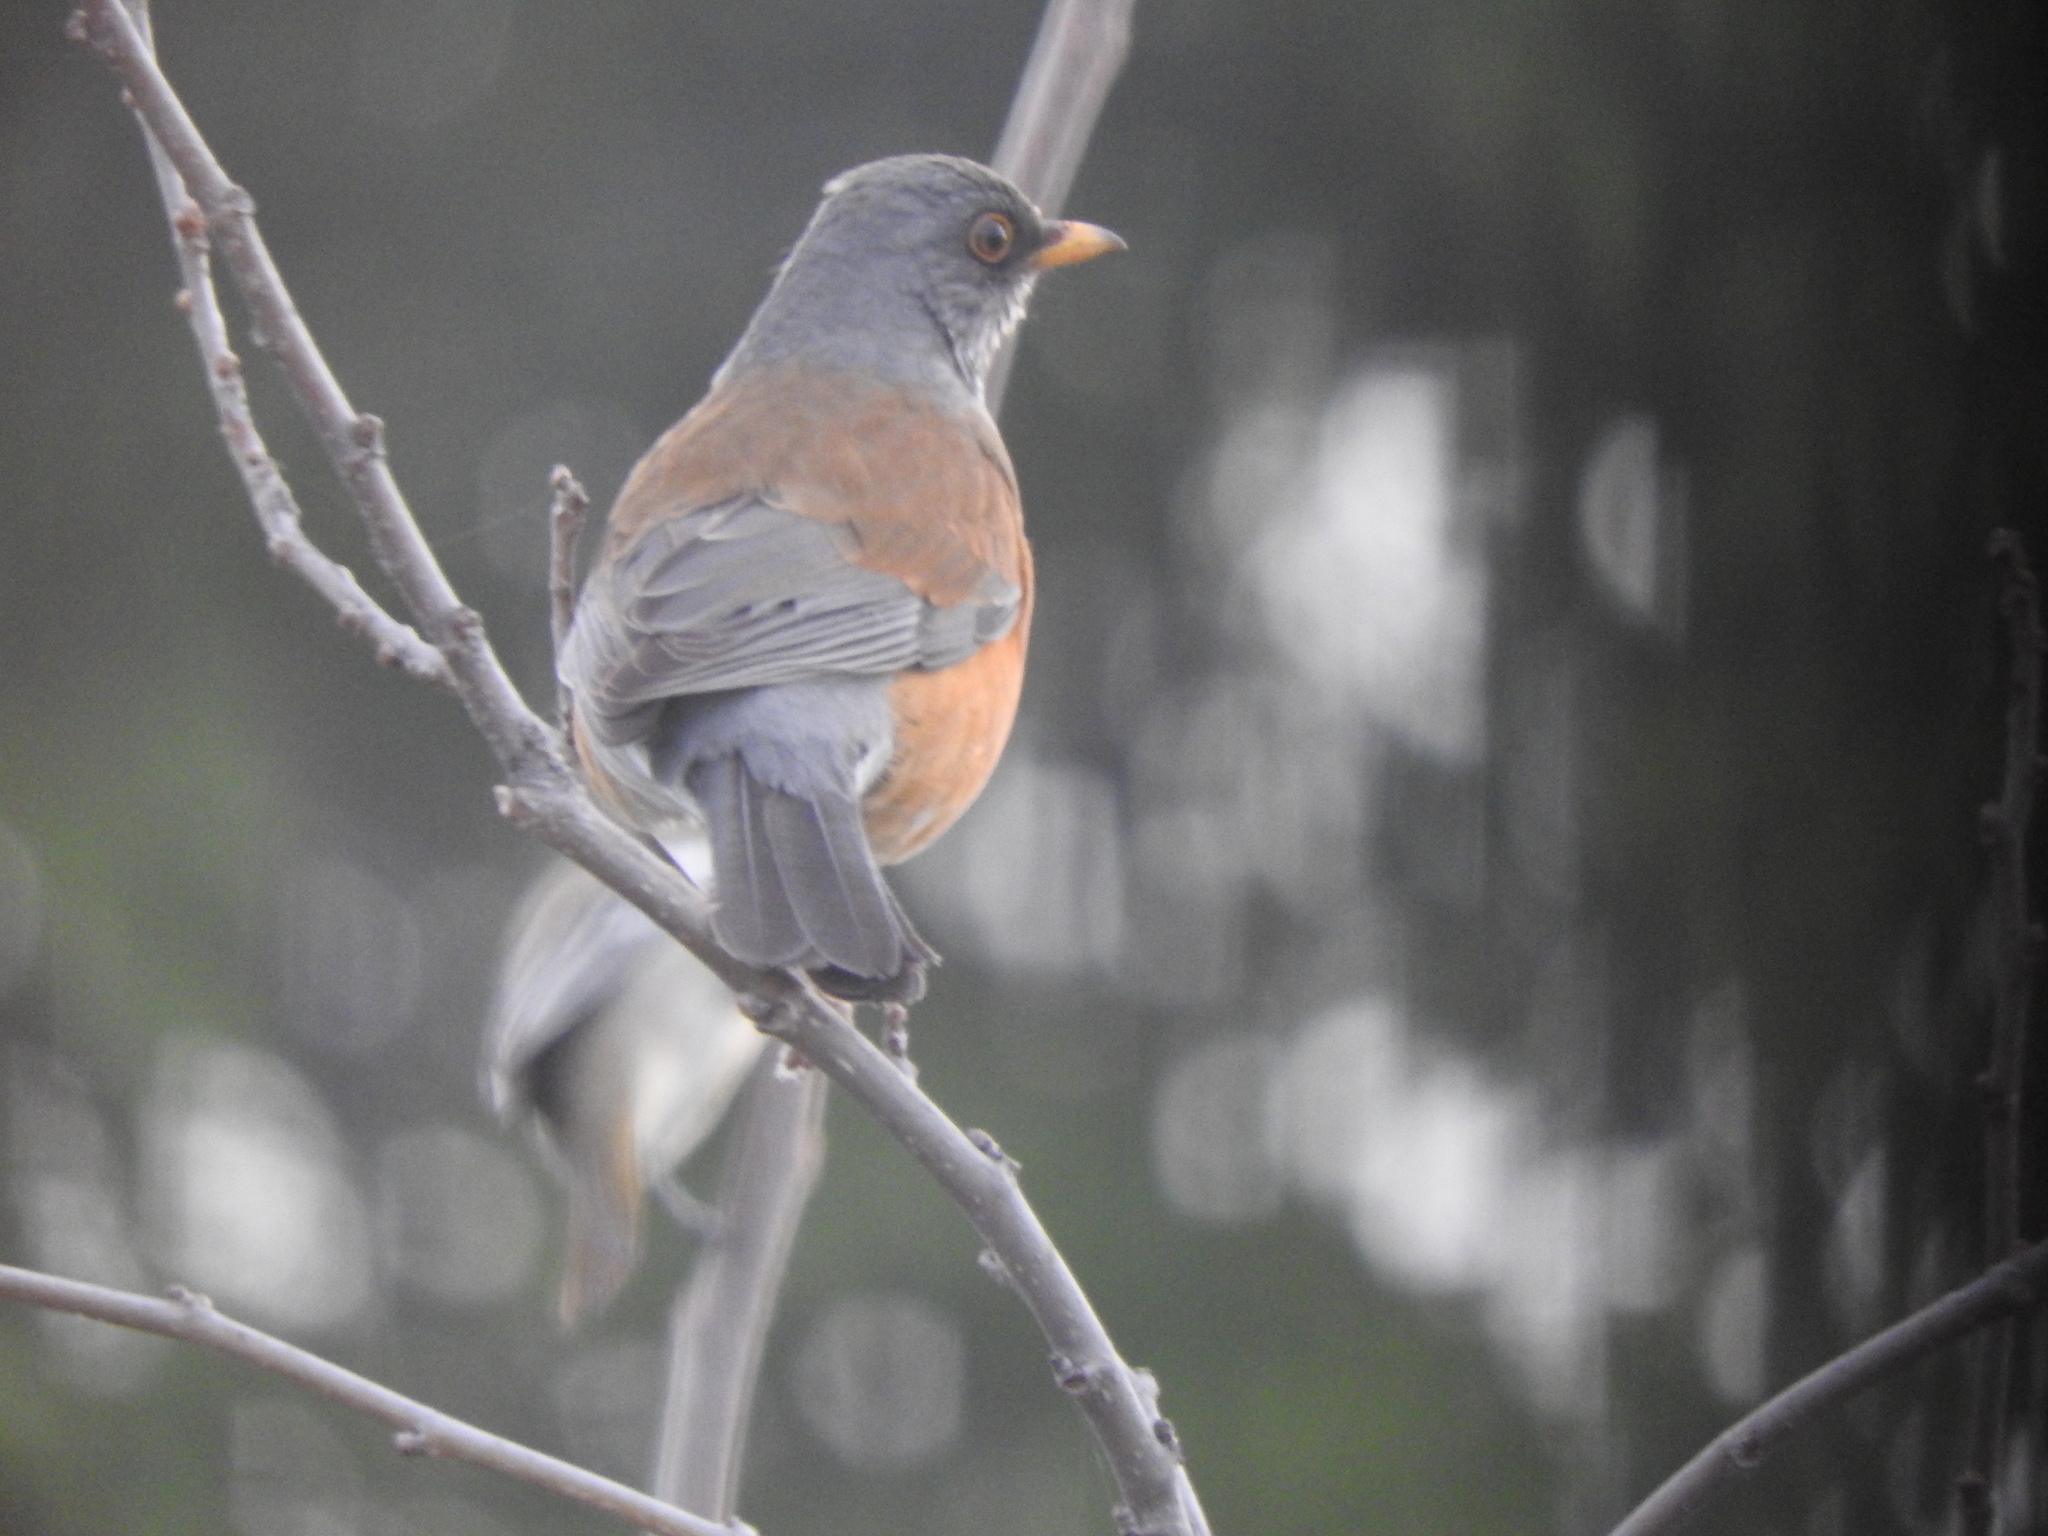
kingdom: Animalia
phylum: Chordata
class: Aves
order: Passeriformes
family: Turdidae
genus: Turdus
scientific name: Turdus rufopalliatus
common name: Rufous-backed robin
